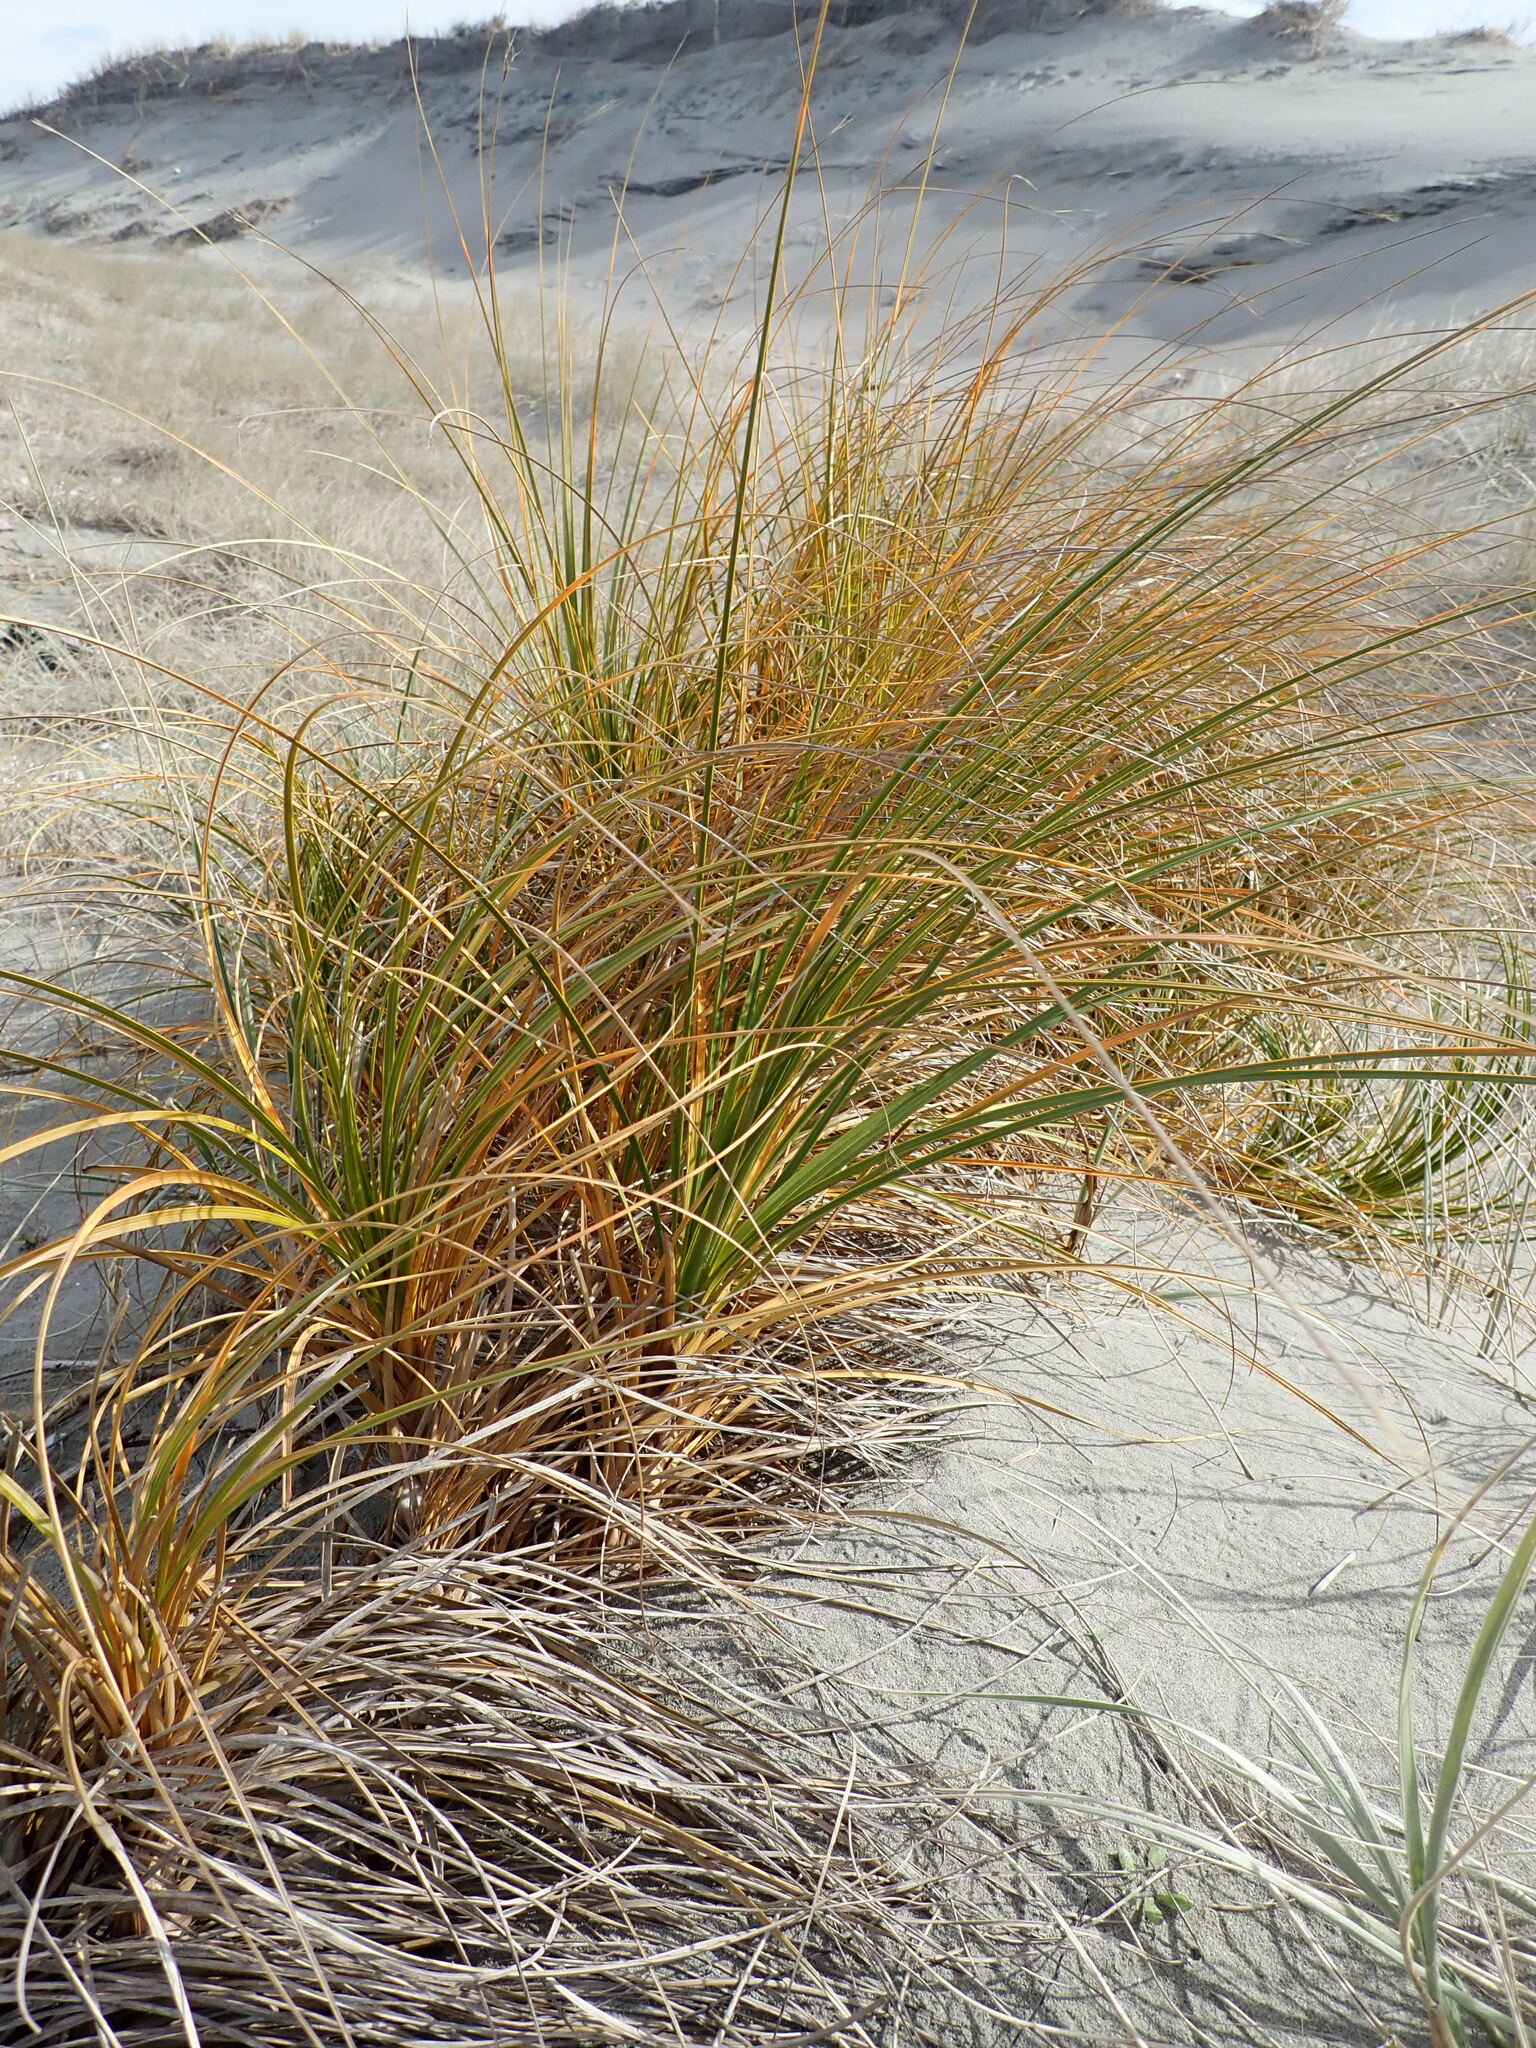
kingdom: Plantae
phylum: Tracheophyta
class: Liliopsida
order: Poales
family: Cyperaceae
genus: Ficinia
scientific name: Ficinia spiralis
